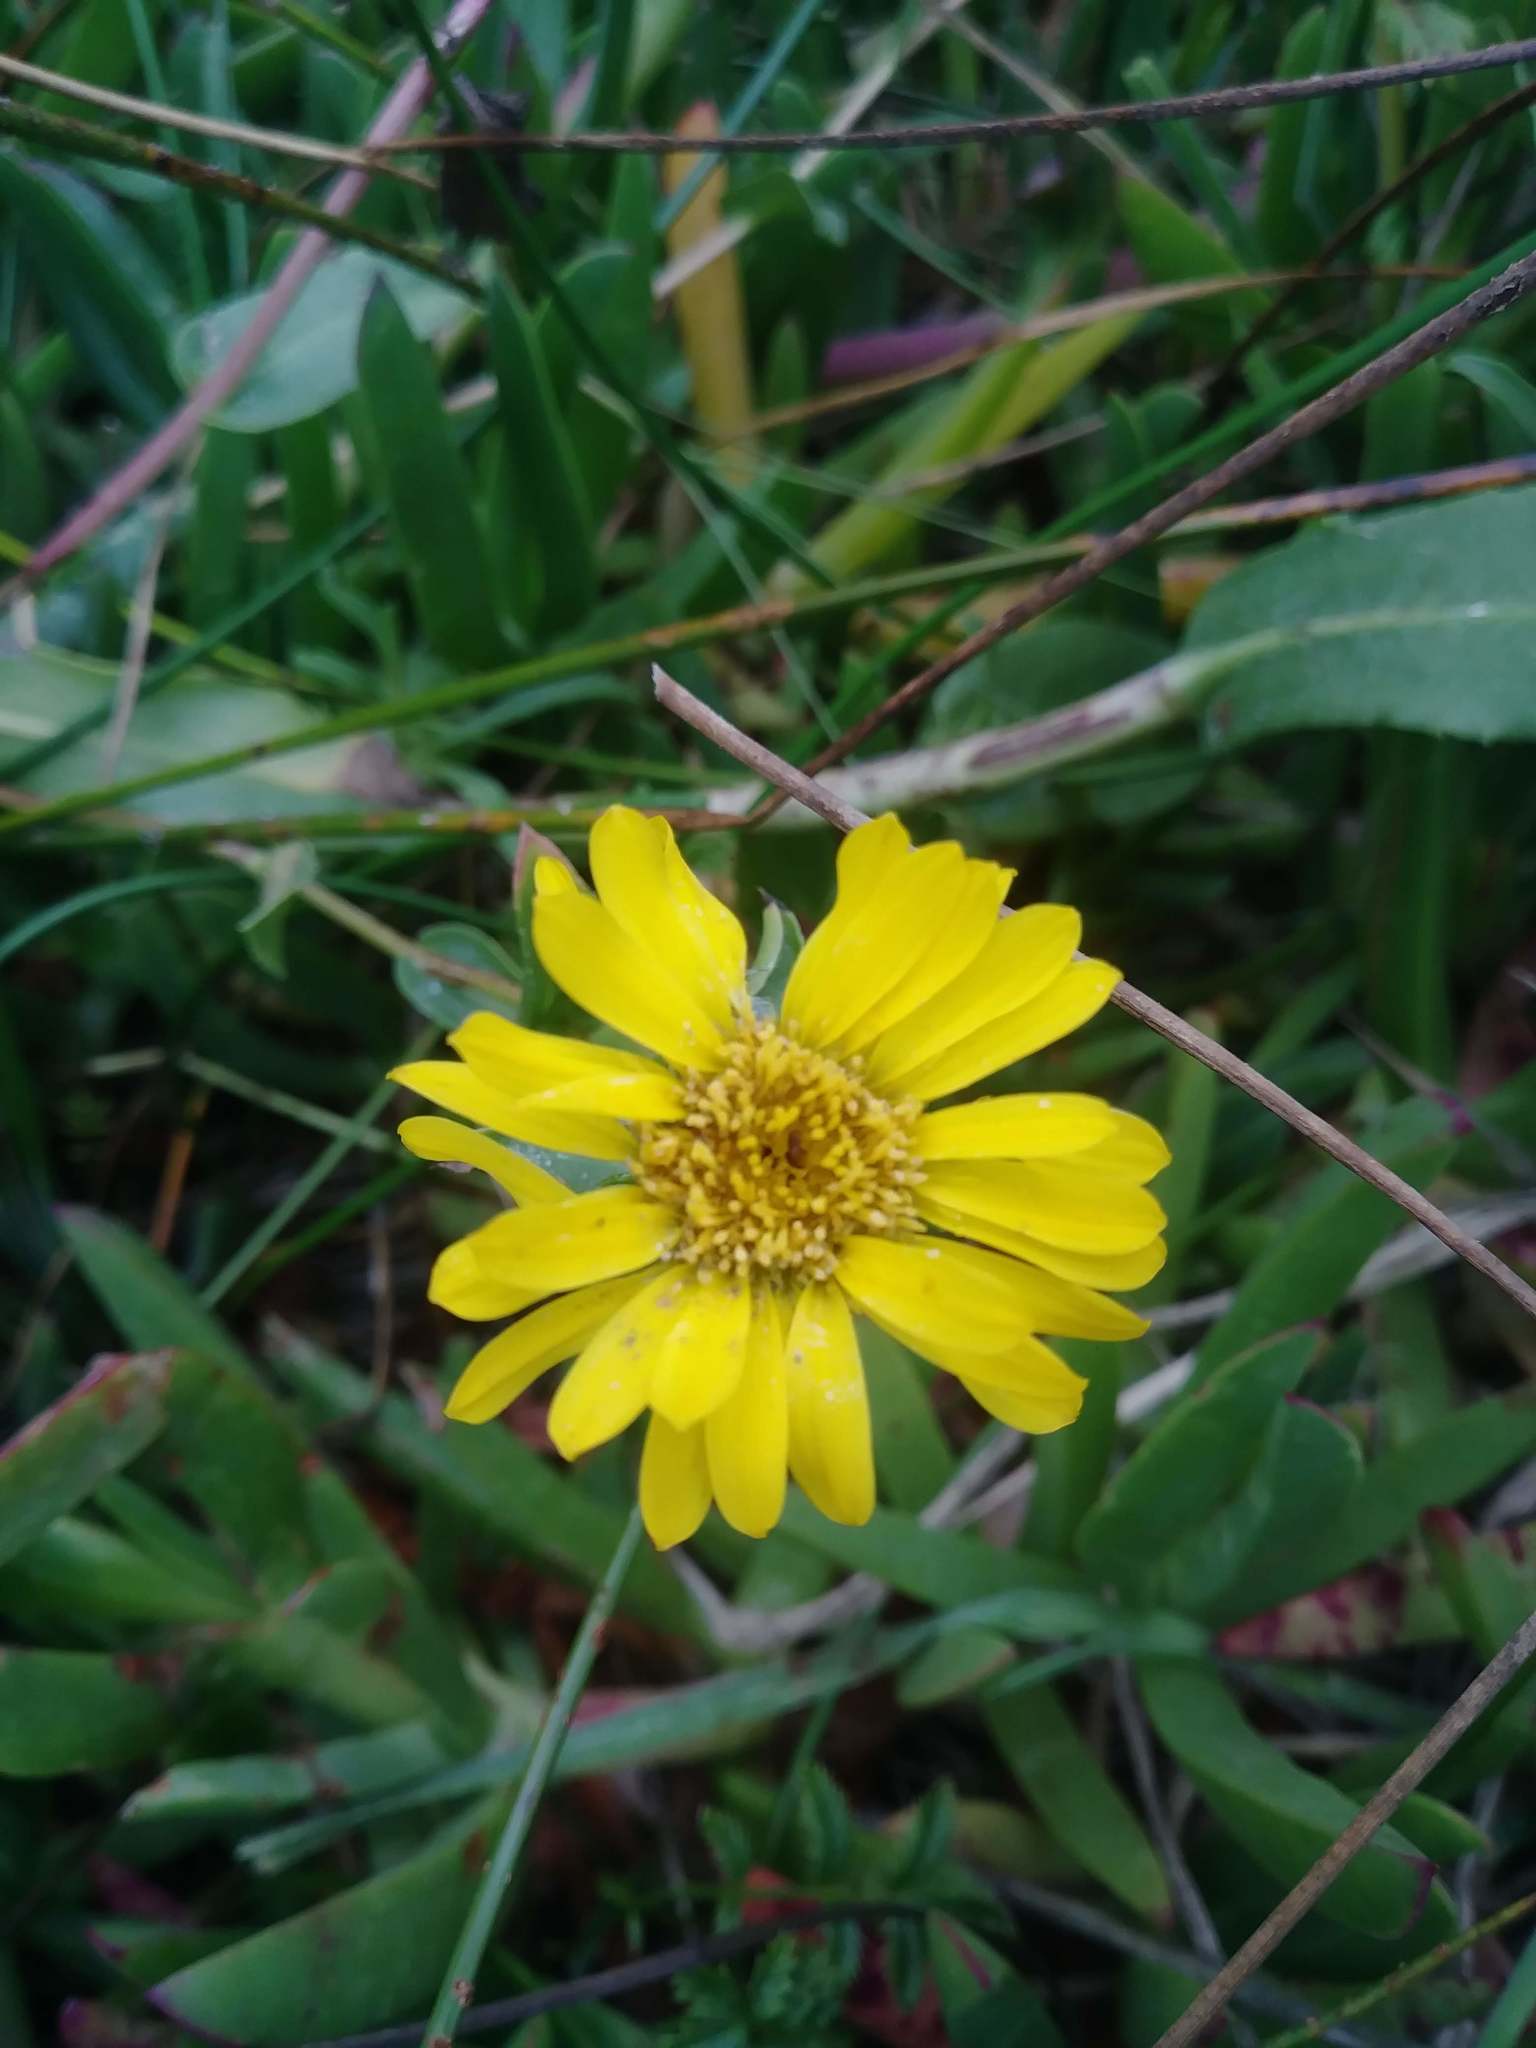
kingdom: Plantae
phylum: Tracheophyta
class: Magnoliopsida
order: Asterales
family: Asteraceae
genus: Grindelia
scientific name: Grindelia hirsutula
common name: Hairy gumweed
